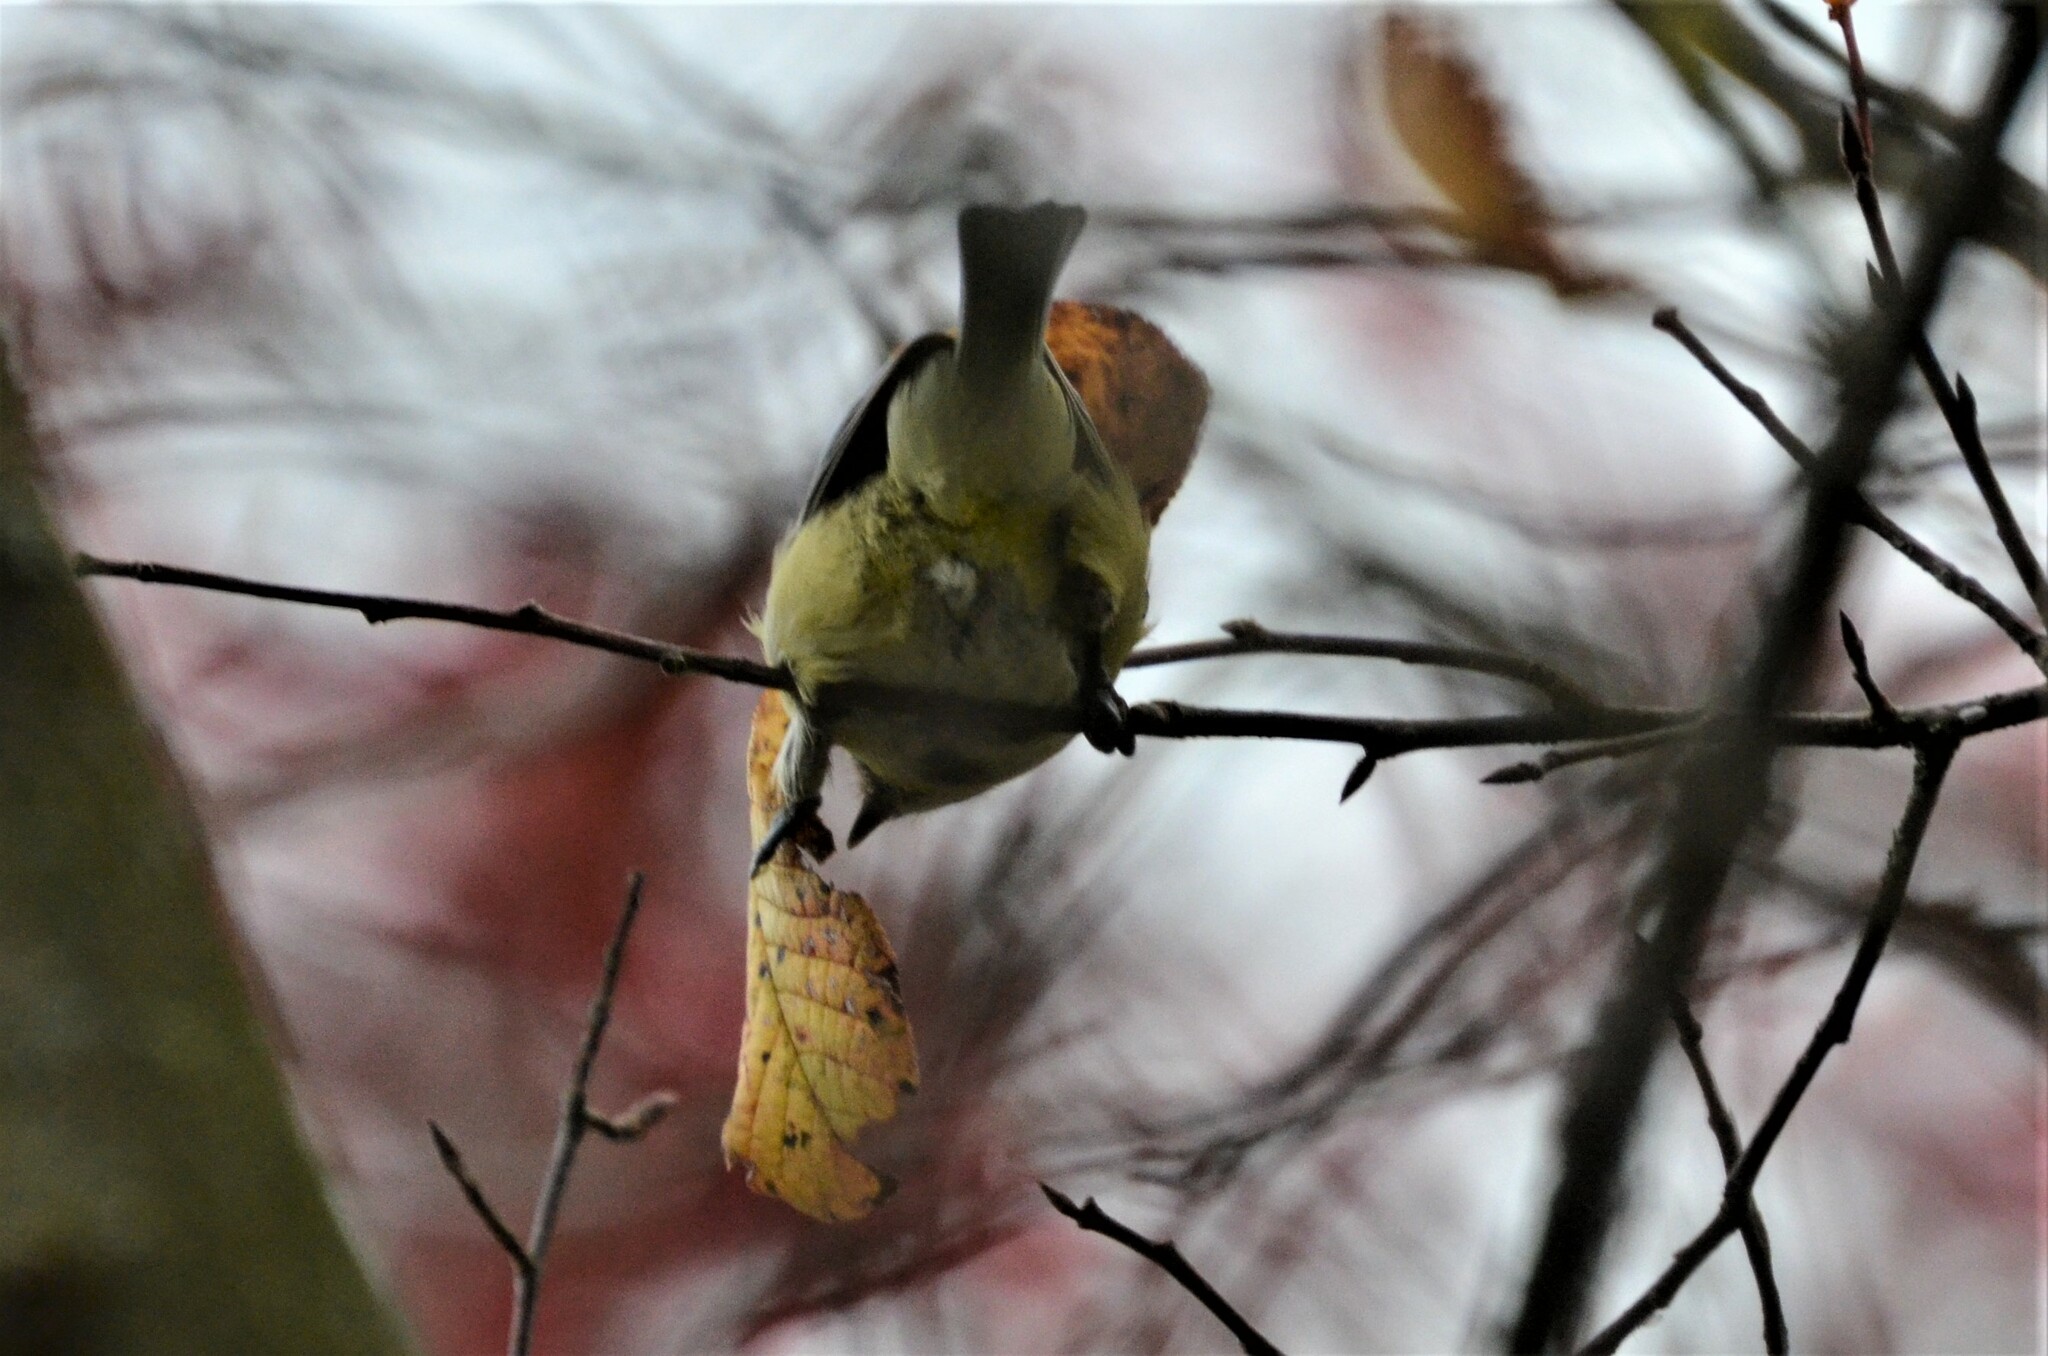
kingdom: Animalia
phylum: Chordata
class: Aves
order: Passeriformes
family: Paridae
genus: Cyanistes
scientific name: Cyanistes caeruleus
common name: Eurasian blue tit
